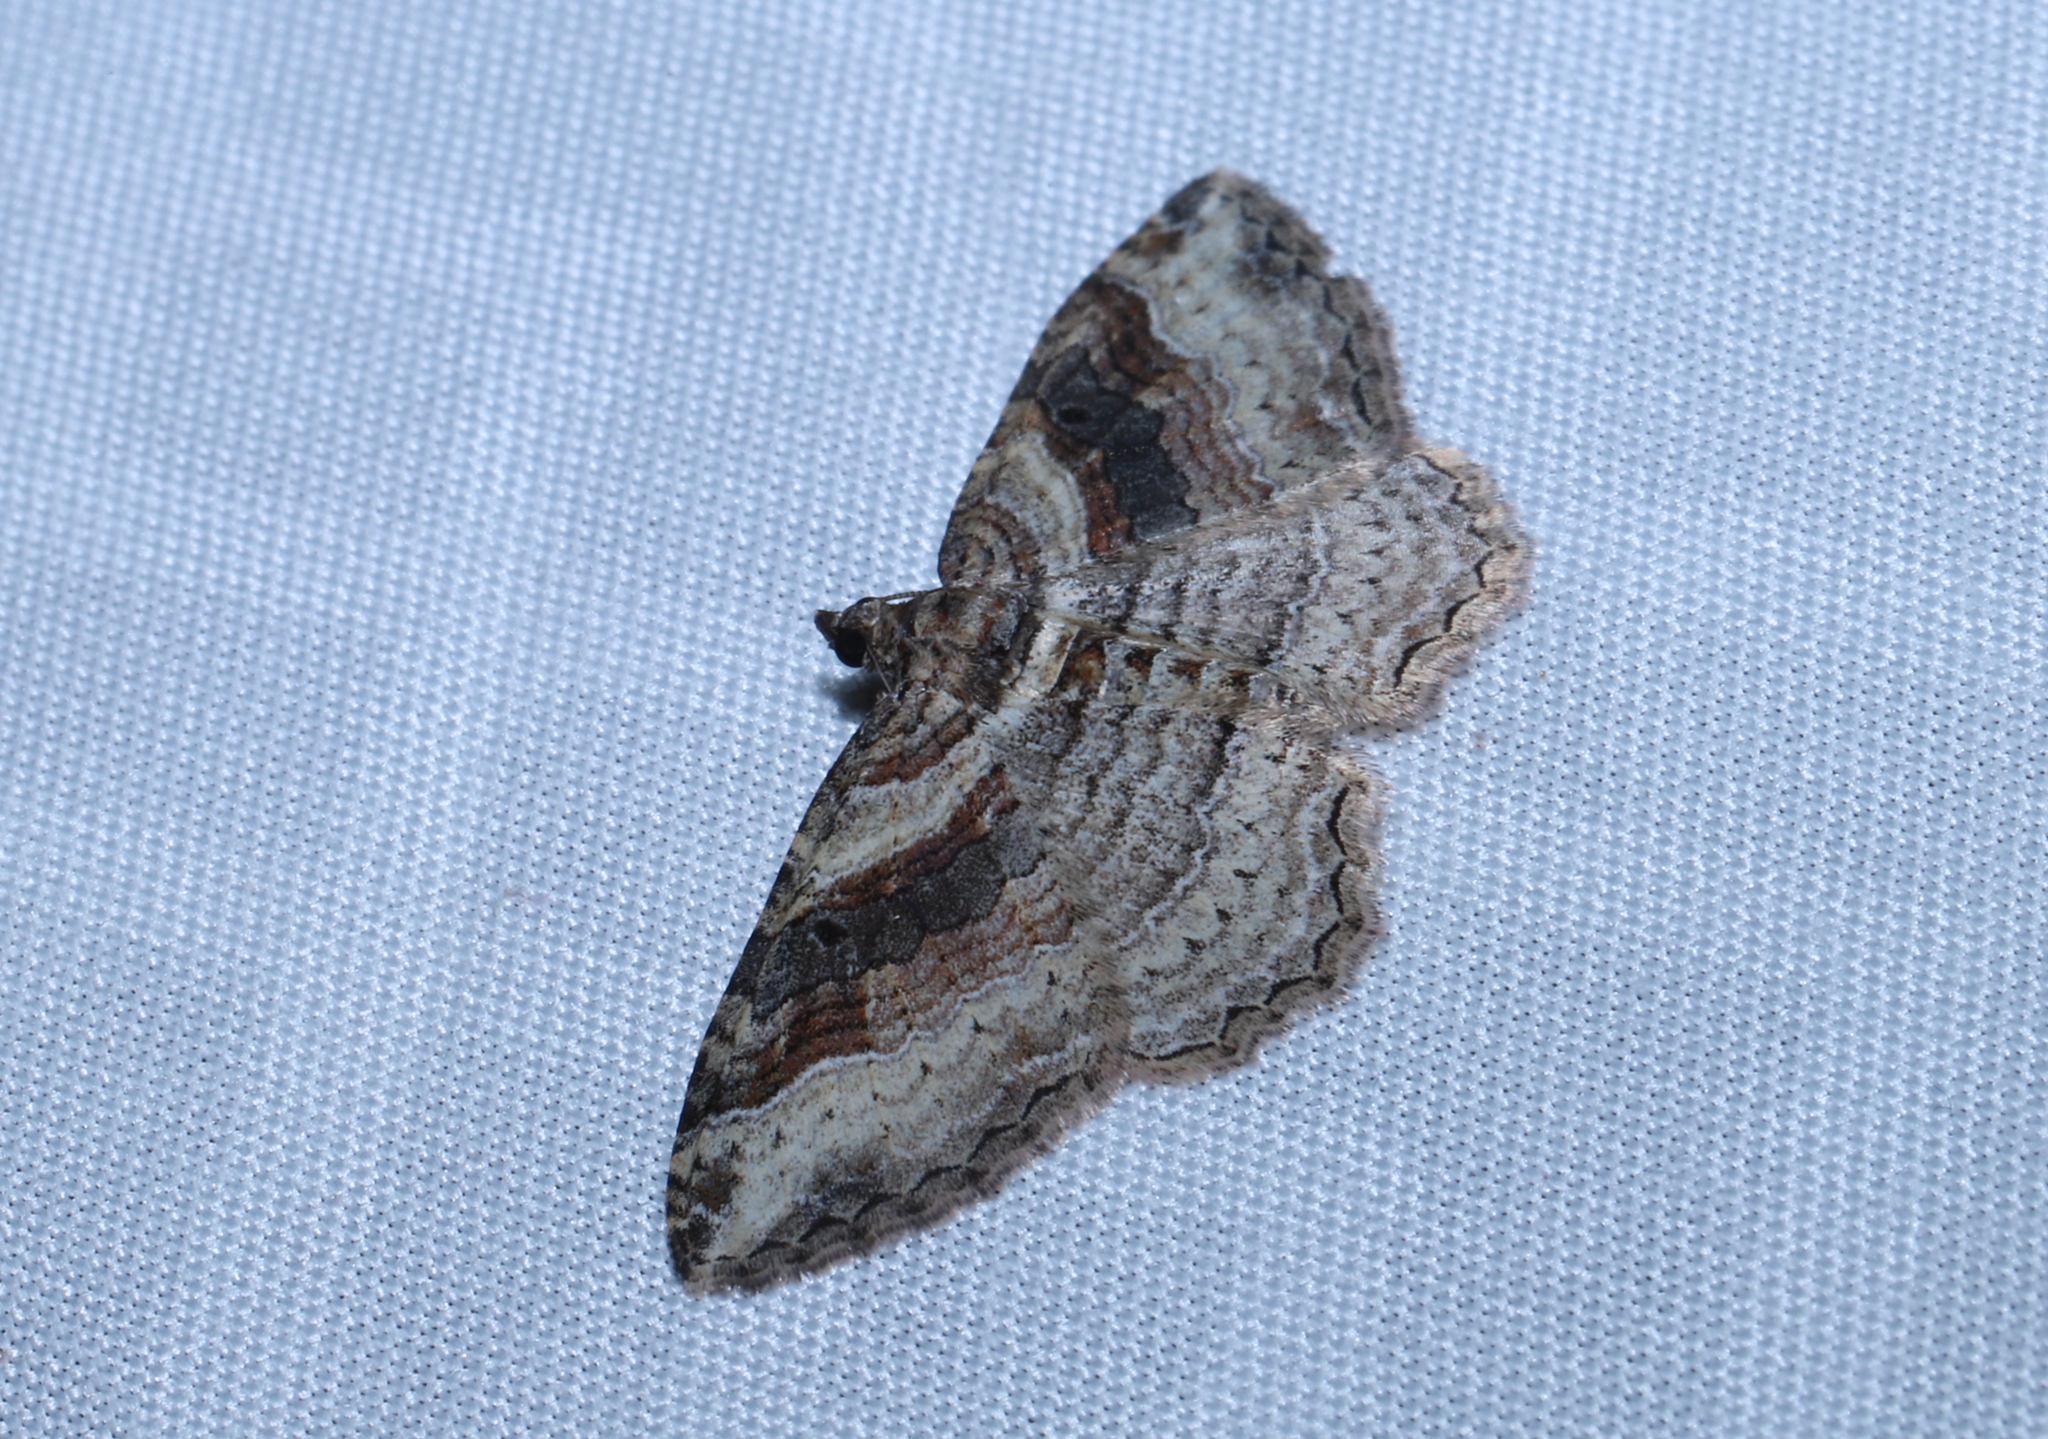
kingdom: Animalia
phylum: Arthropoda
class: Insecta
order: Lepidoptera
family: Geometridae
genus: Costaconvexa
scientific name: Costaconvexa centrostrigaria
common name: Bent-line carpet
